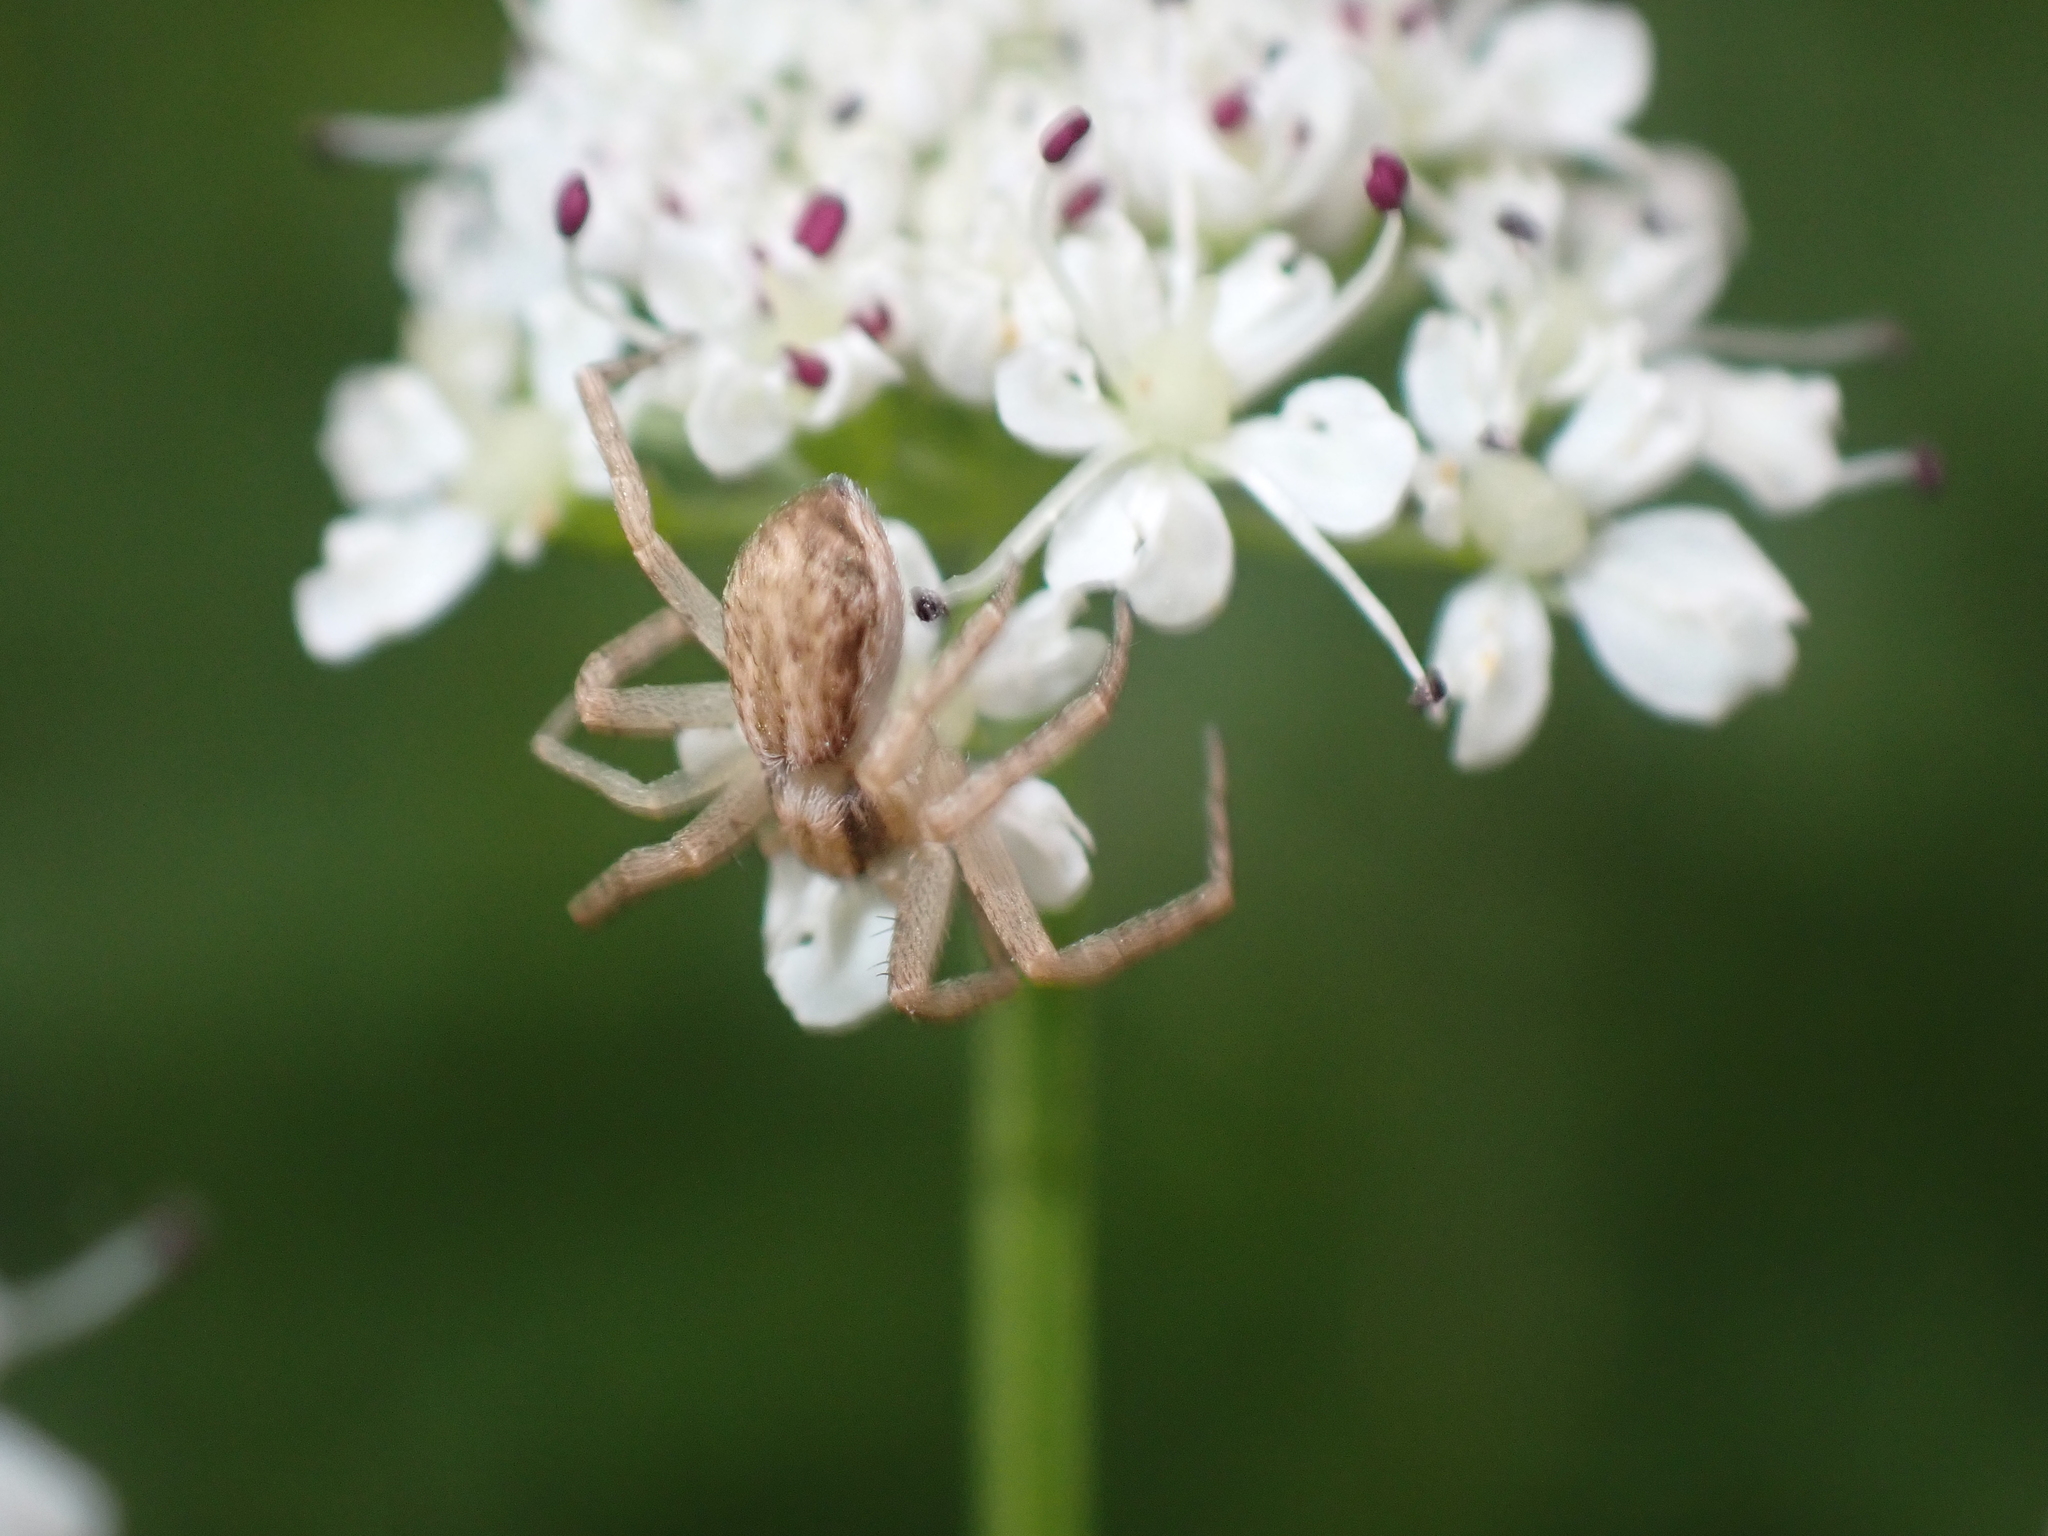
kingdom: Animalia
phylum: Arthropoda
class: Arachnida
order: Araneae
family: Philodromidae
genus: Philodromus
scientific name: Philodromus dispar
